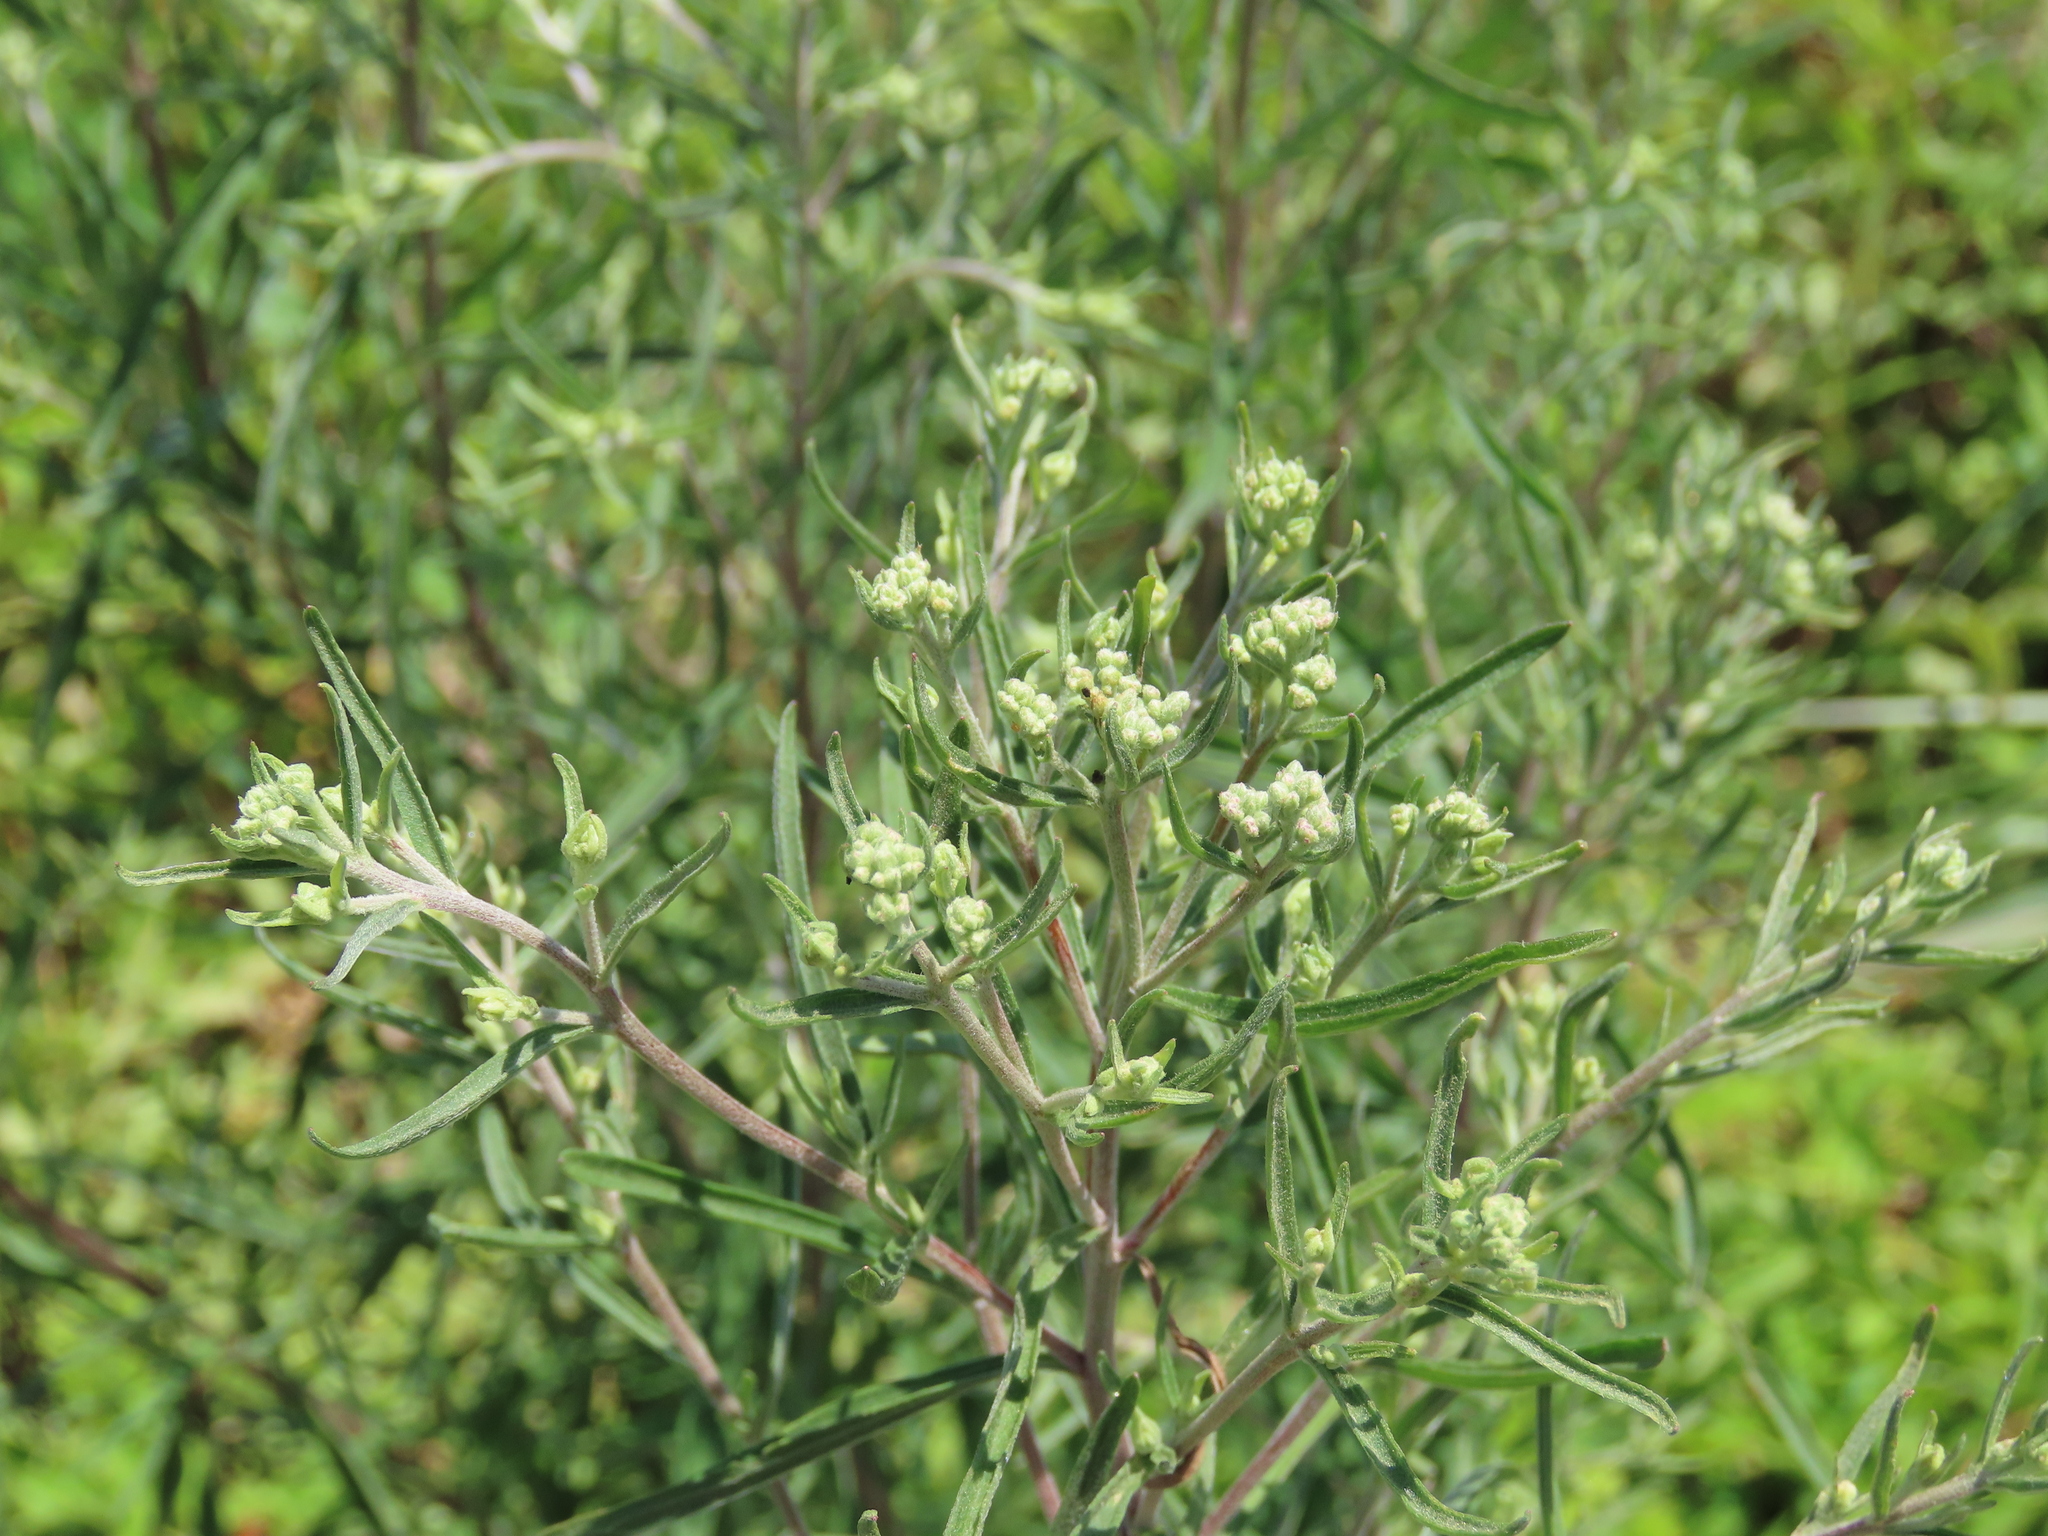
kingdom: Plantae
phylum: Tracheophyta
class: Magnoliopsida
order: Asterales
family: Asteraceae
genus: Eupatorium
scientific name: Eupatorium hyssopifolium
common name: Hyssop-leaf thoroughwort
